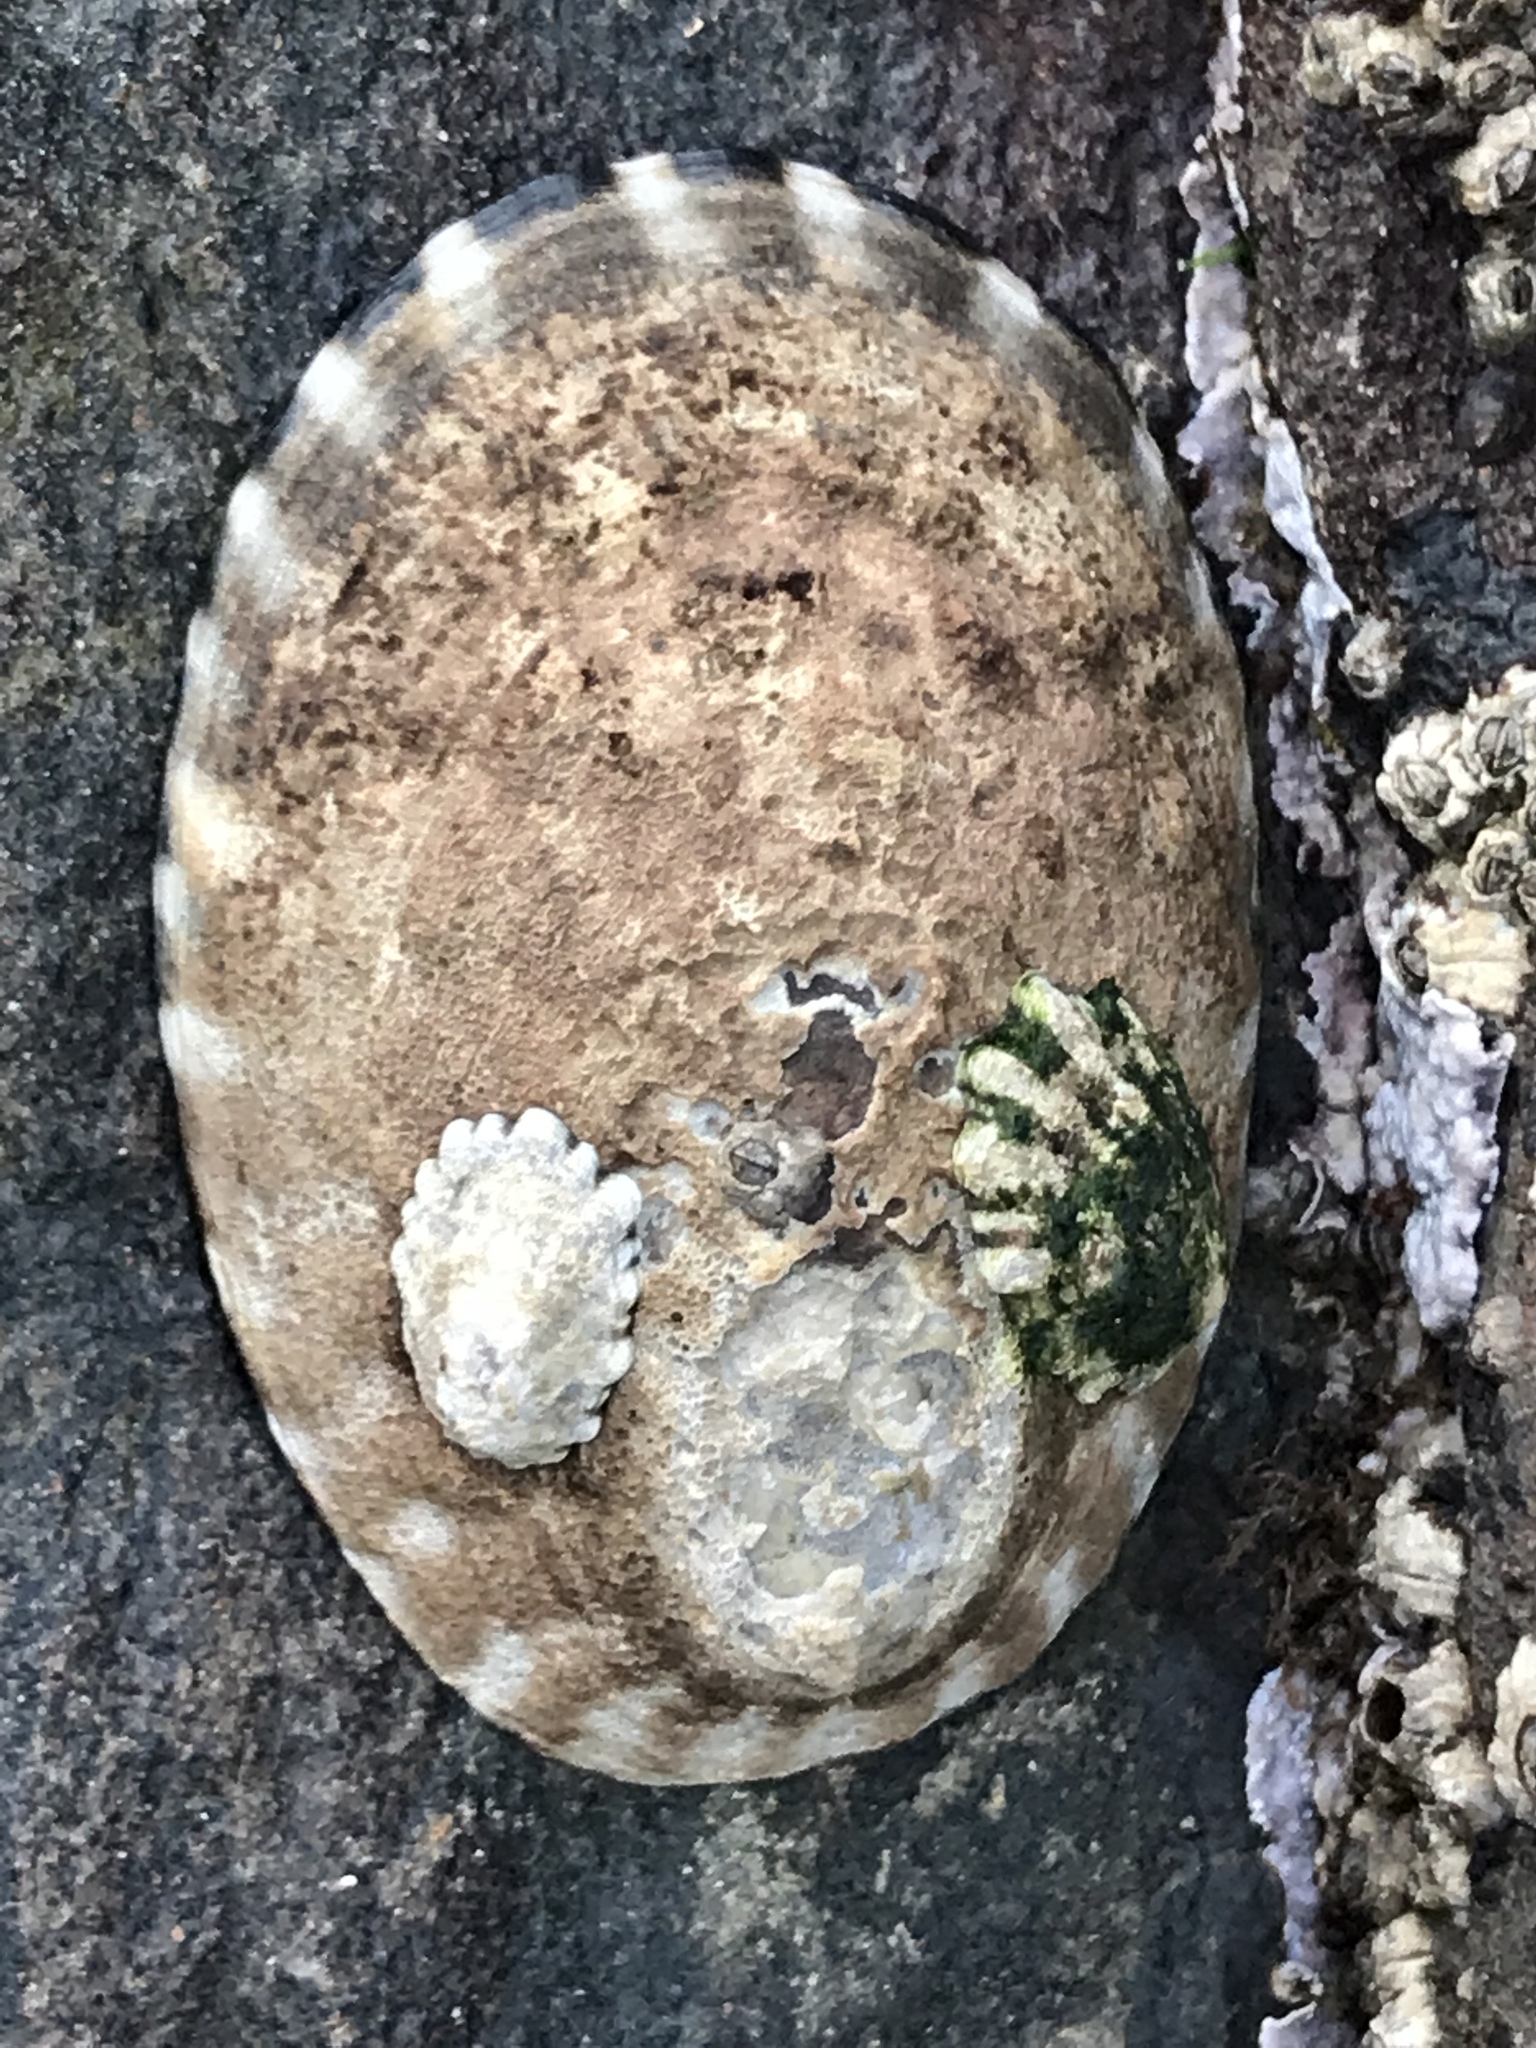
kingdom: Animalia
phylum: Mollusca
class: Gastropoda
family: Lottiidae
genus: Lottia
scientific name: Lottia gigantea
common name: Owl limpet
